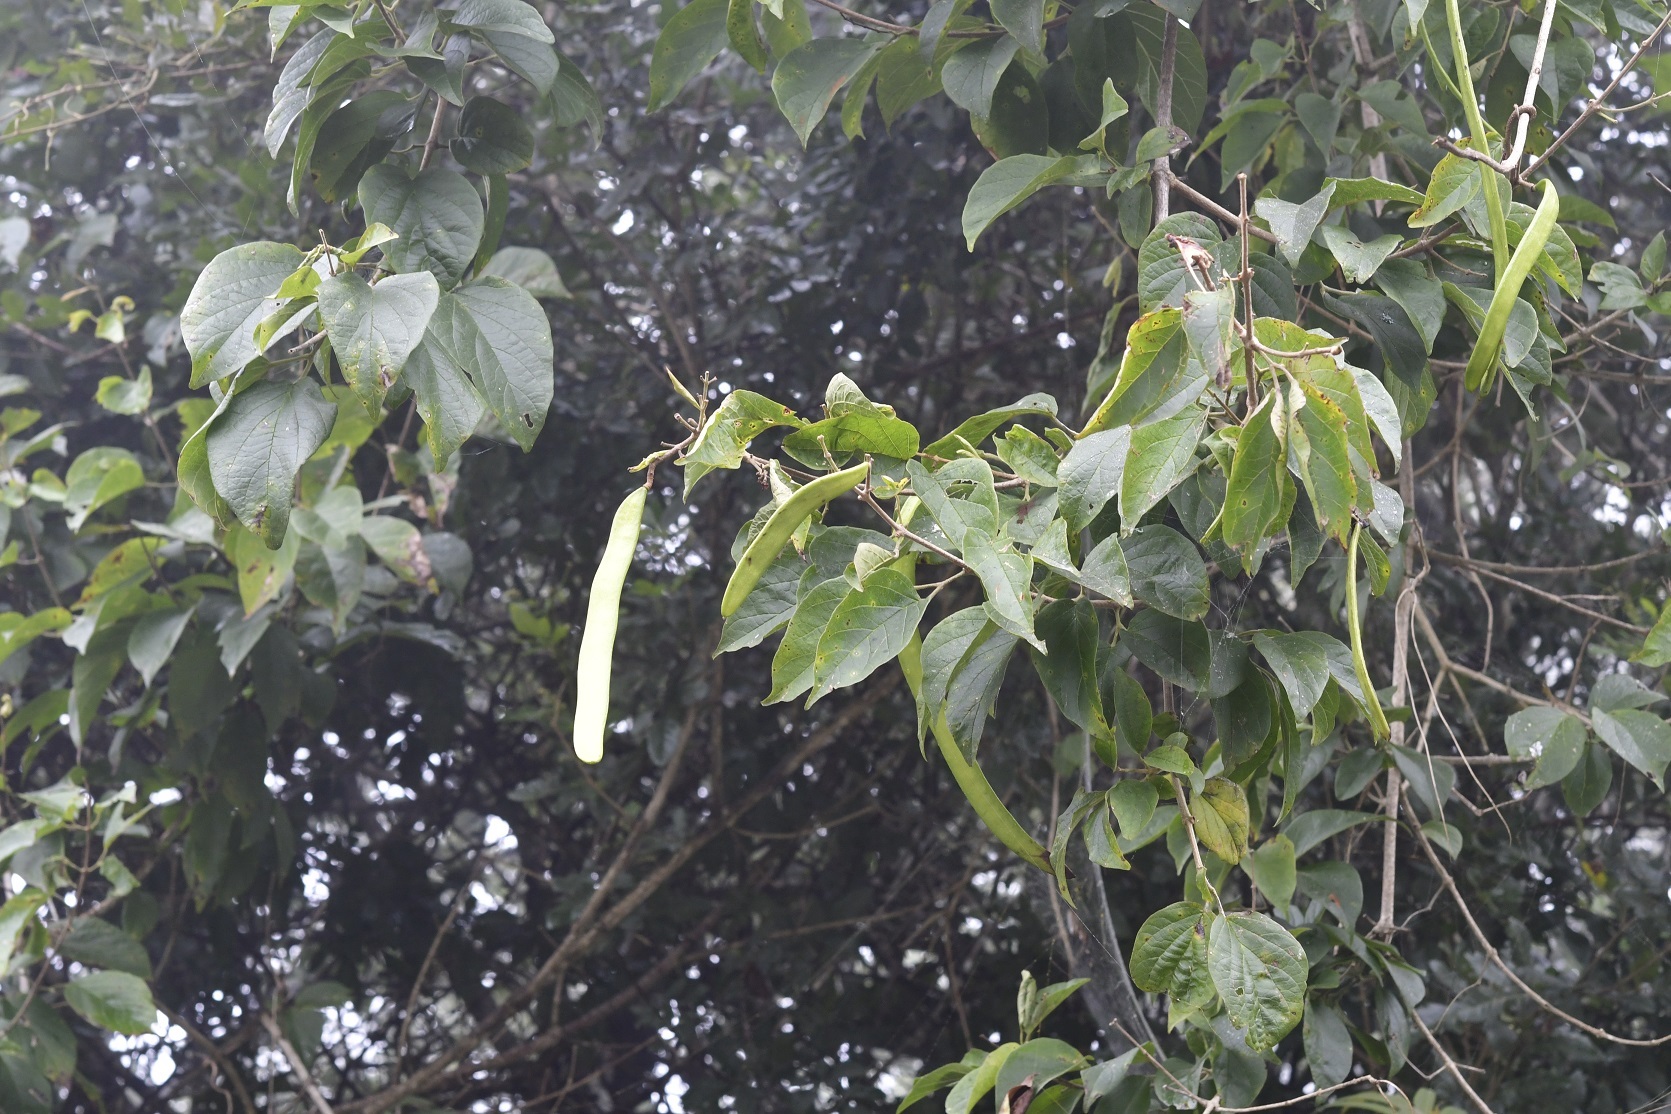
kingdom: Plantae
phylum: Tracheophyta
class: Magnoliopsida
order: Lamiales
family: Bignoniaceae
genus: Fridericia
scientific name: Fridericia chica
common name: Cricketvine
